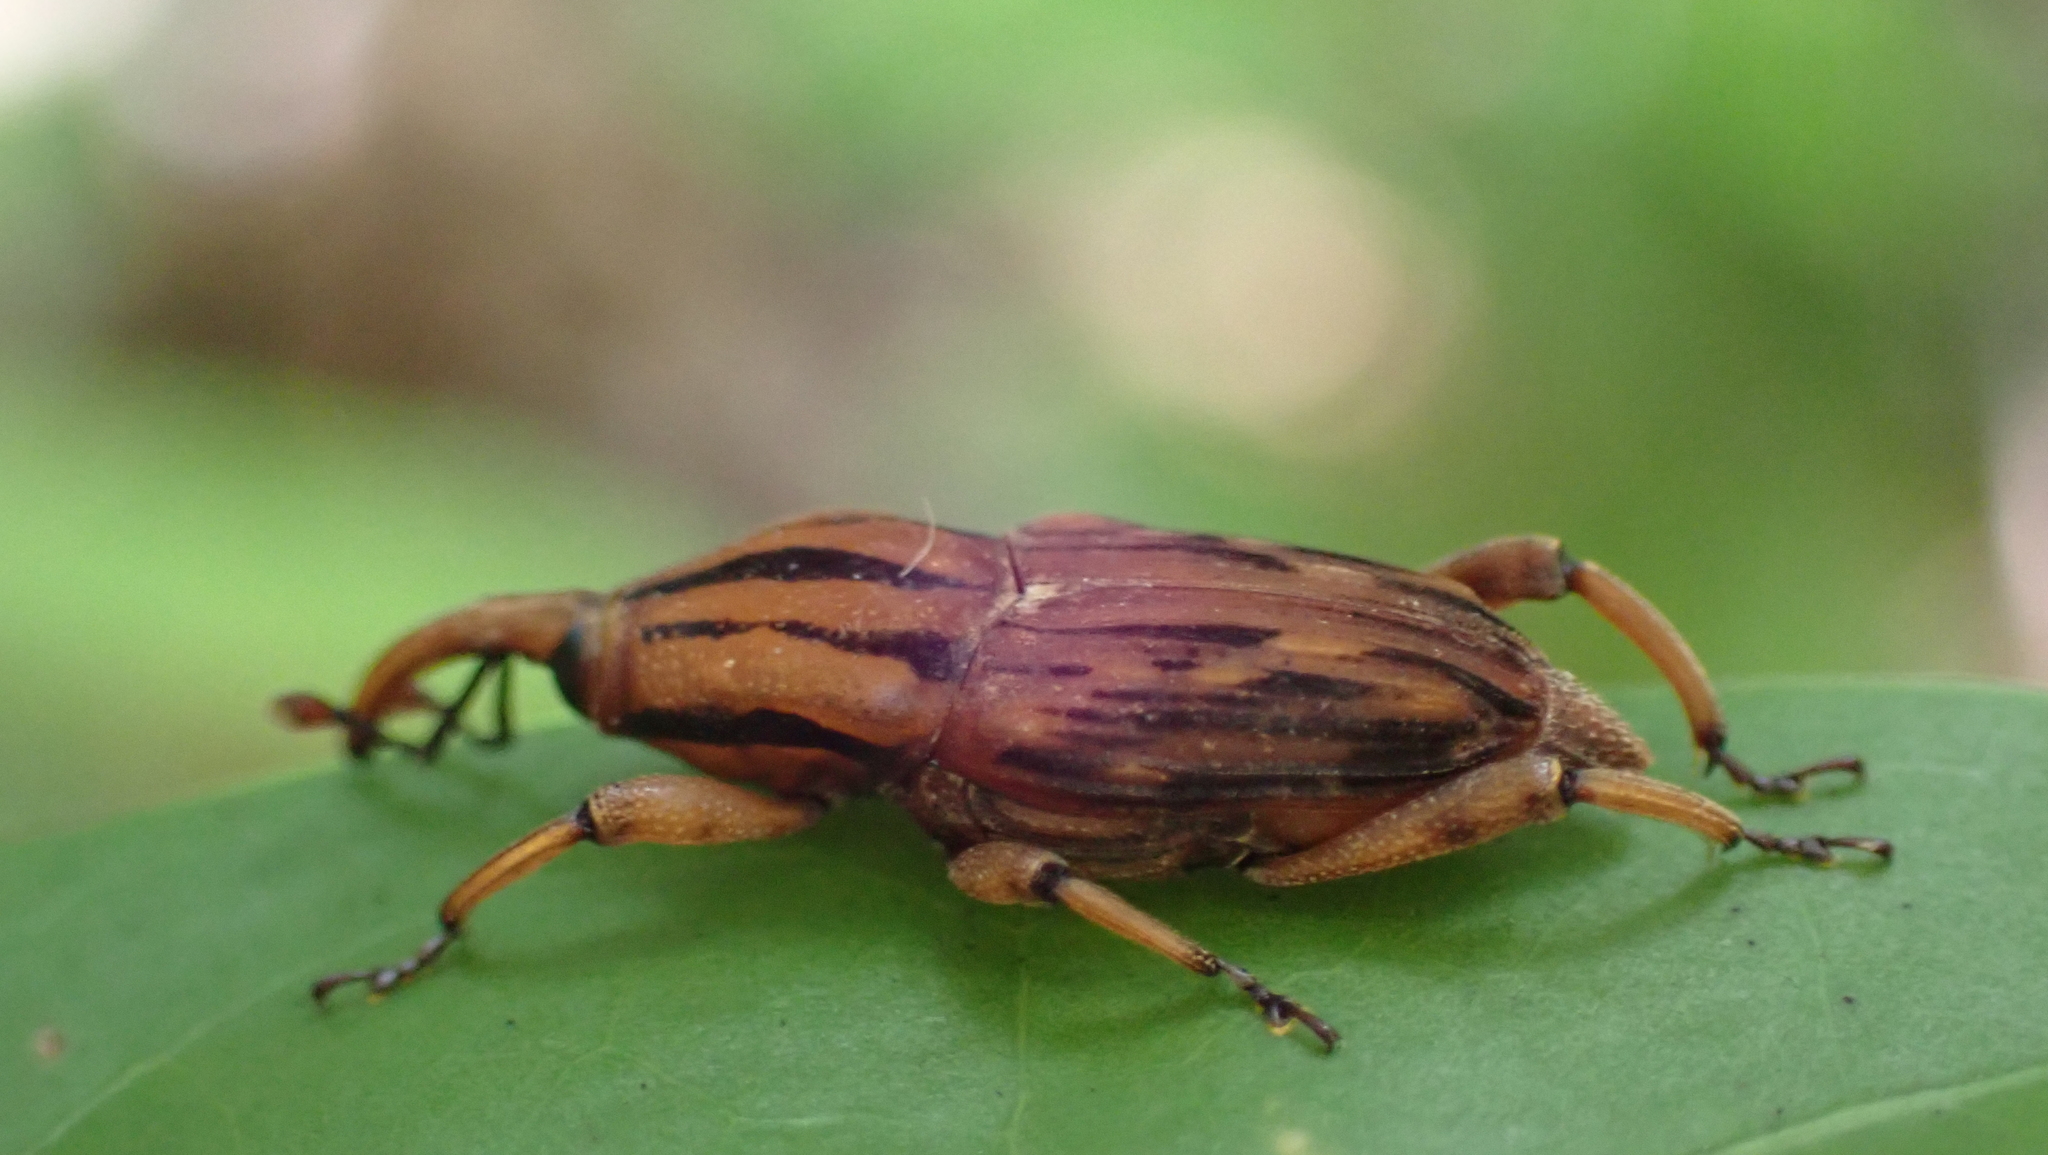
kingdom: Animalia
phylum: Arthropoda
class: Insecta
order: Coleoptera
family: Dryophthoridae
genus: Paramasius
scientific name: Paramasius distortus
